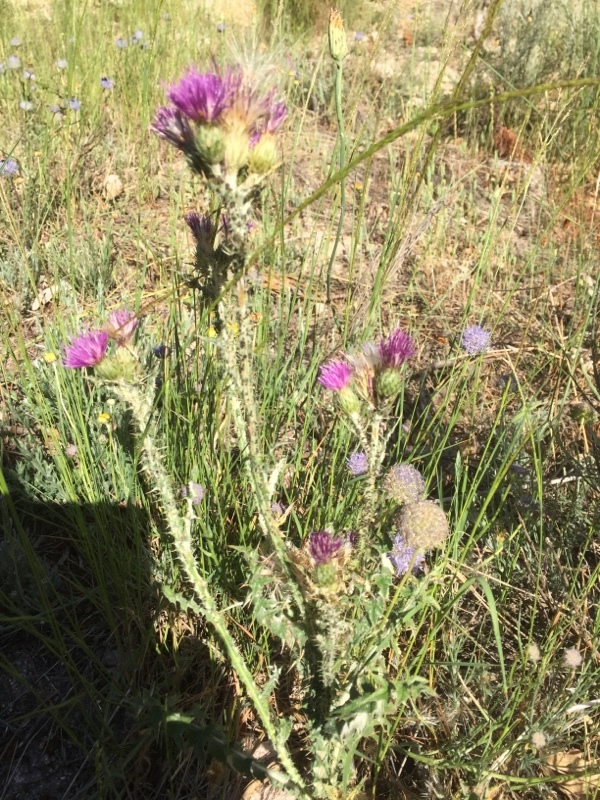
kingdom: Plantae
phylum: Tracheophyta
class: Magnoliopsida
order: Asterales
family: Asteraceae
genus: Carduus
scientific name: Carduus carpetanus
